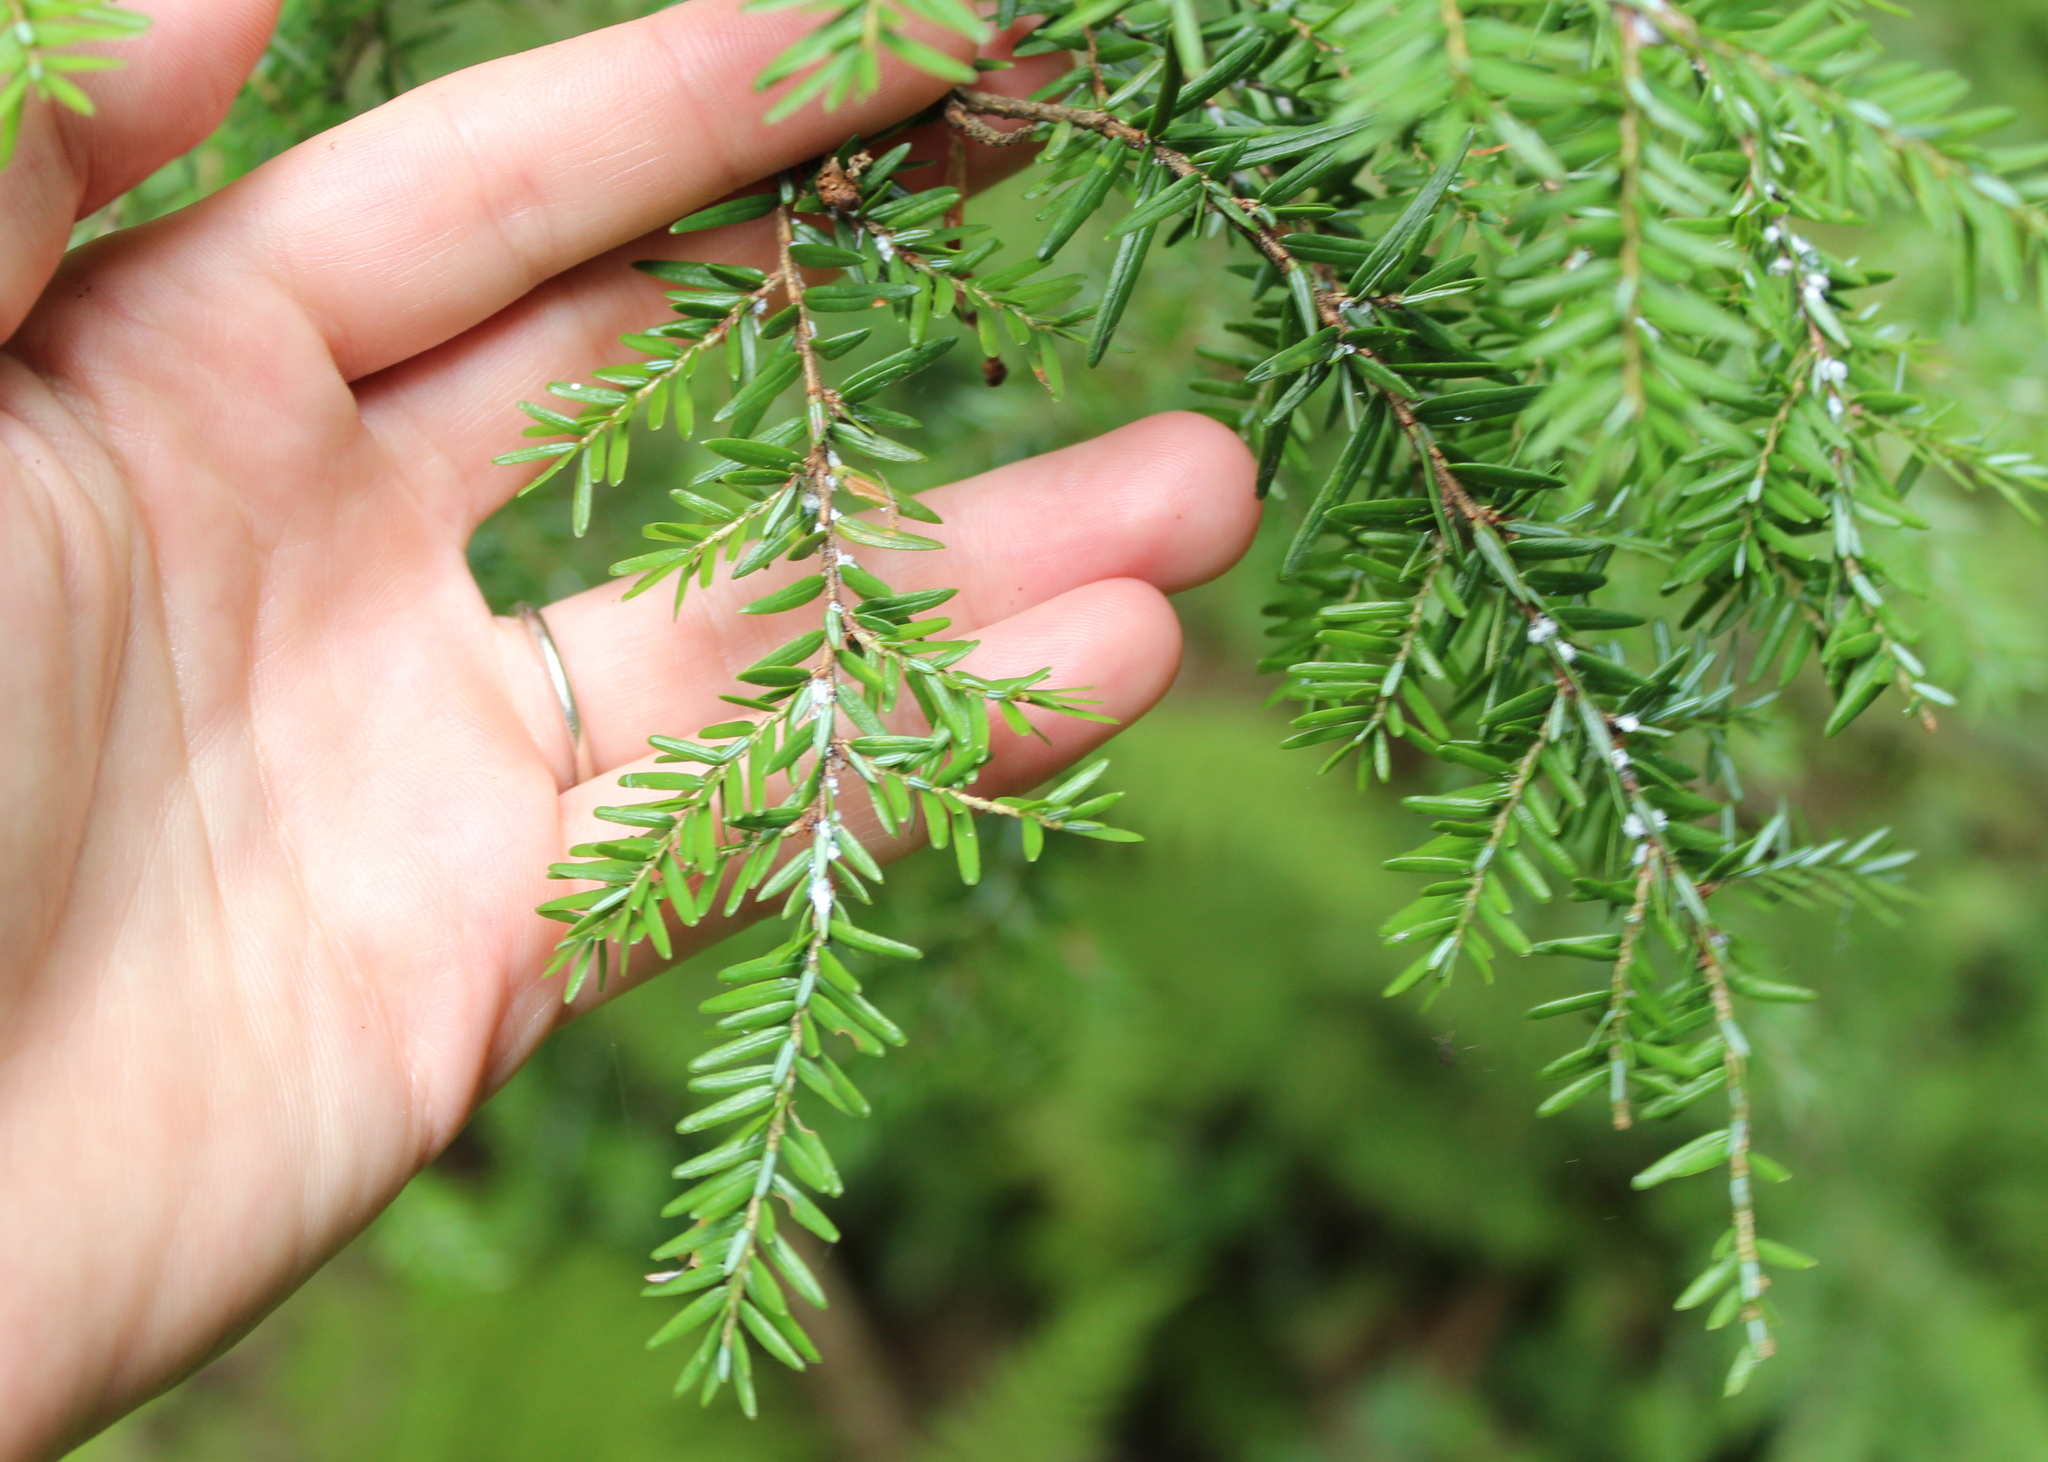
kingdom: Plantae
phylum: Tracheophyta
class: Pinopsida
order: Pinales
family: Pinaceae
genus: Tsuga
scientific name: Tsuga canadensis
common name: Eastern hemlock
